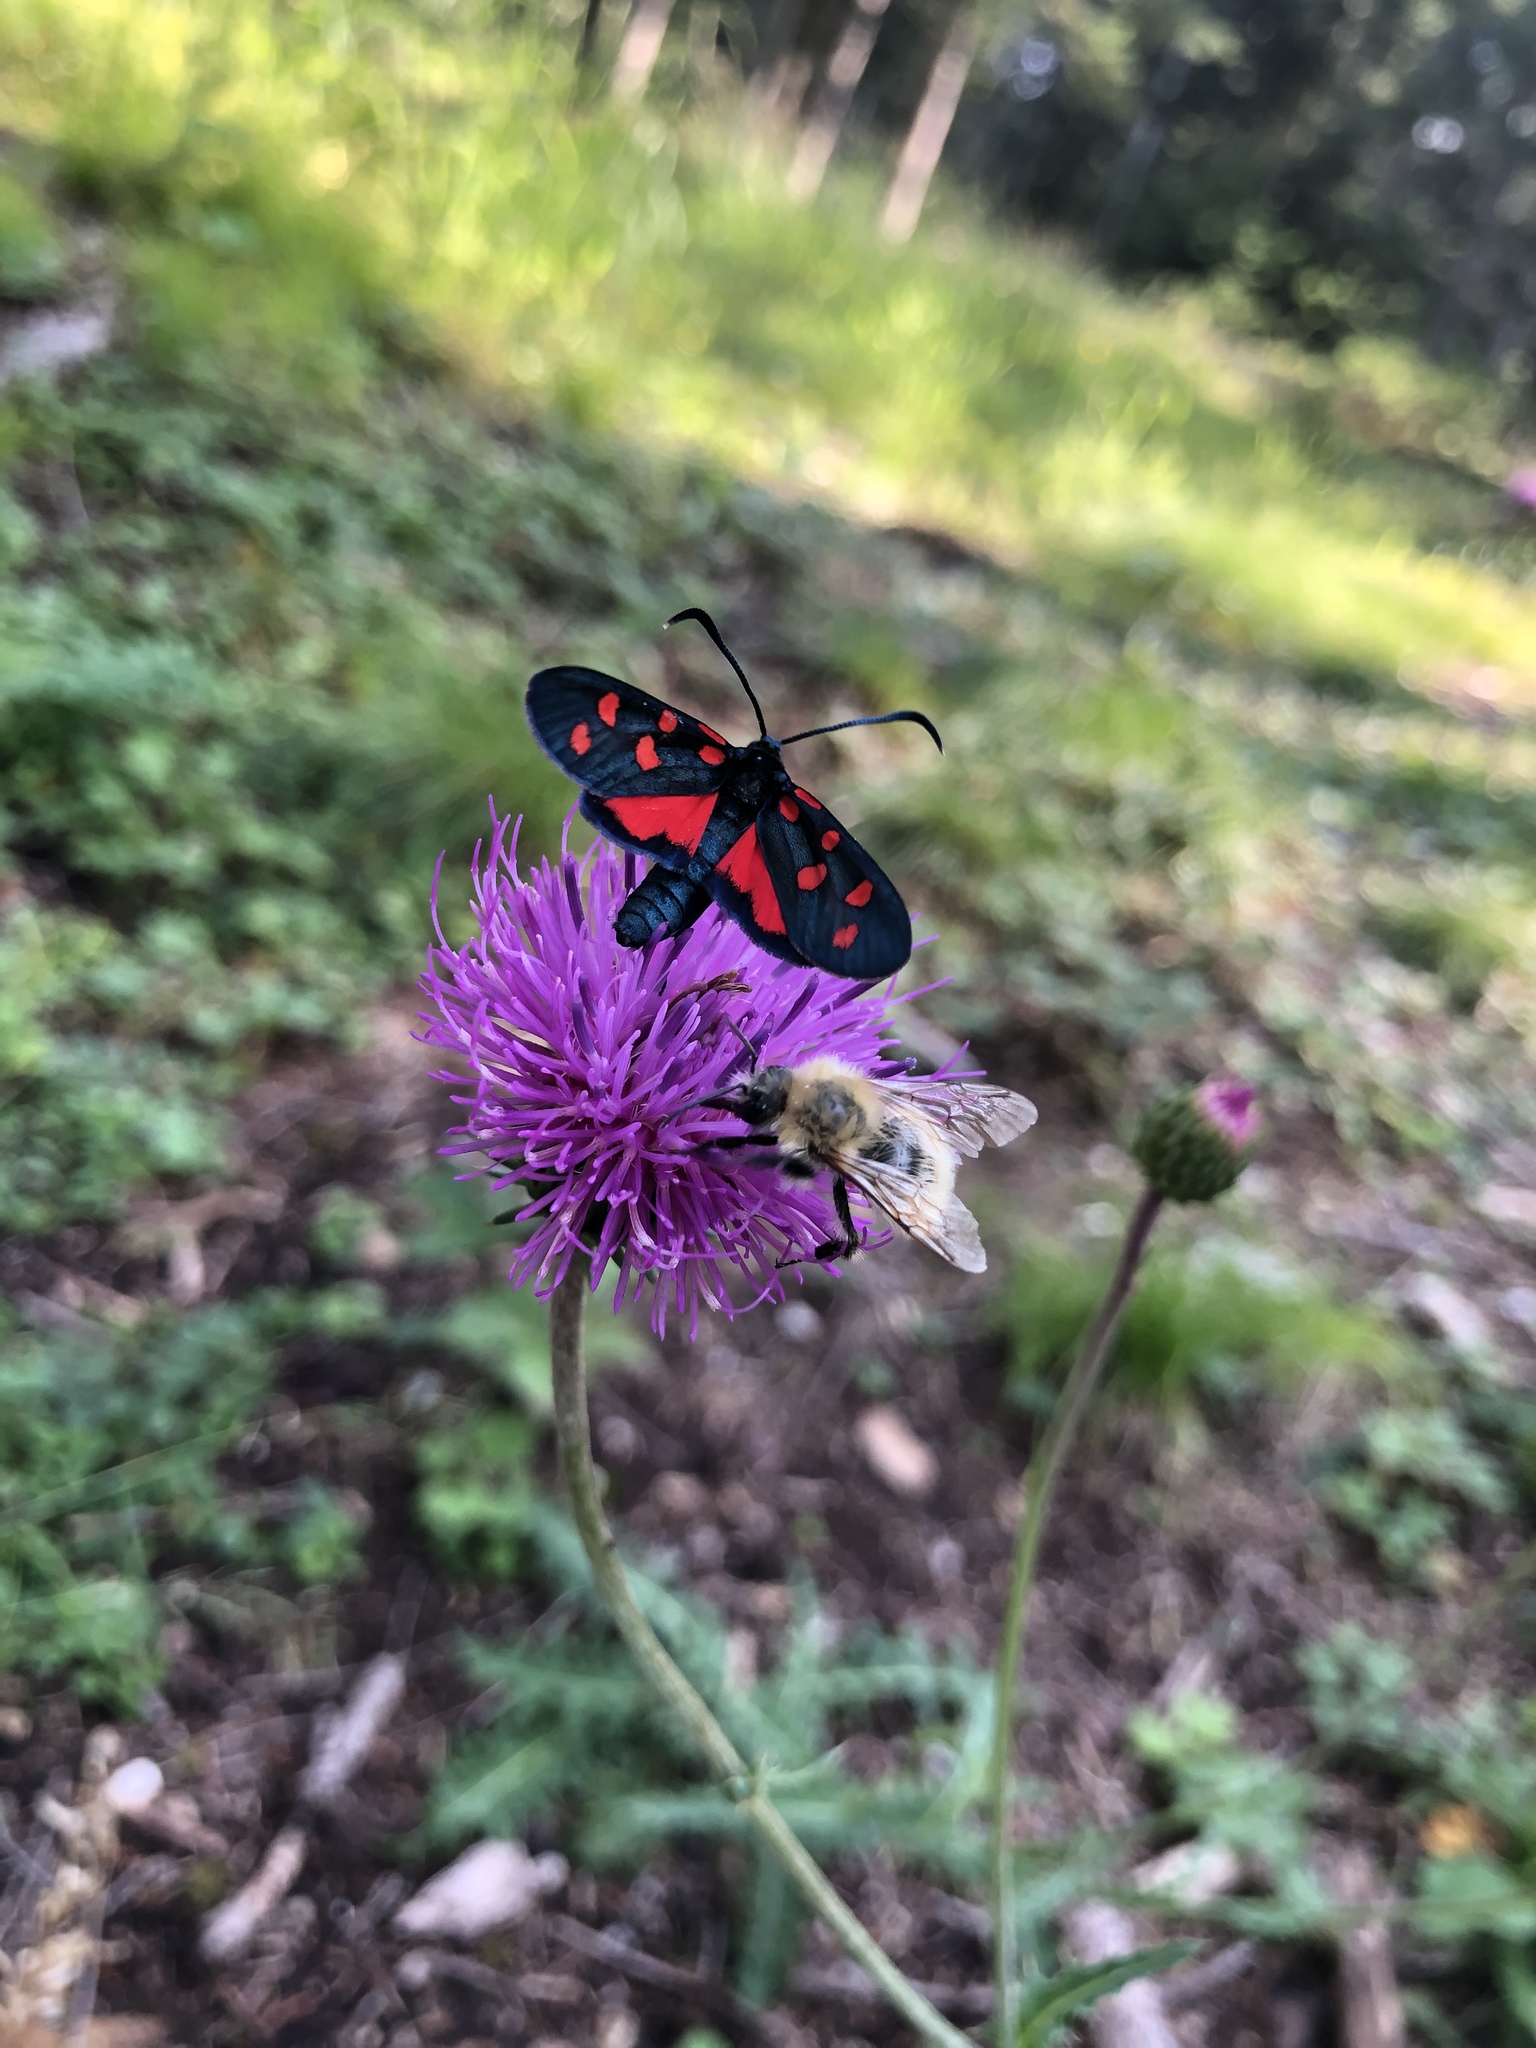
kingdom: Animalia
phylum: Arthropoda
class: Insecta
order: Lepidoptera
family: Zygaenidae
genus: Zygaena
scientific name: Zygaena transalpina
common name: Southern six spot burnet
